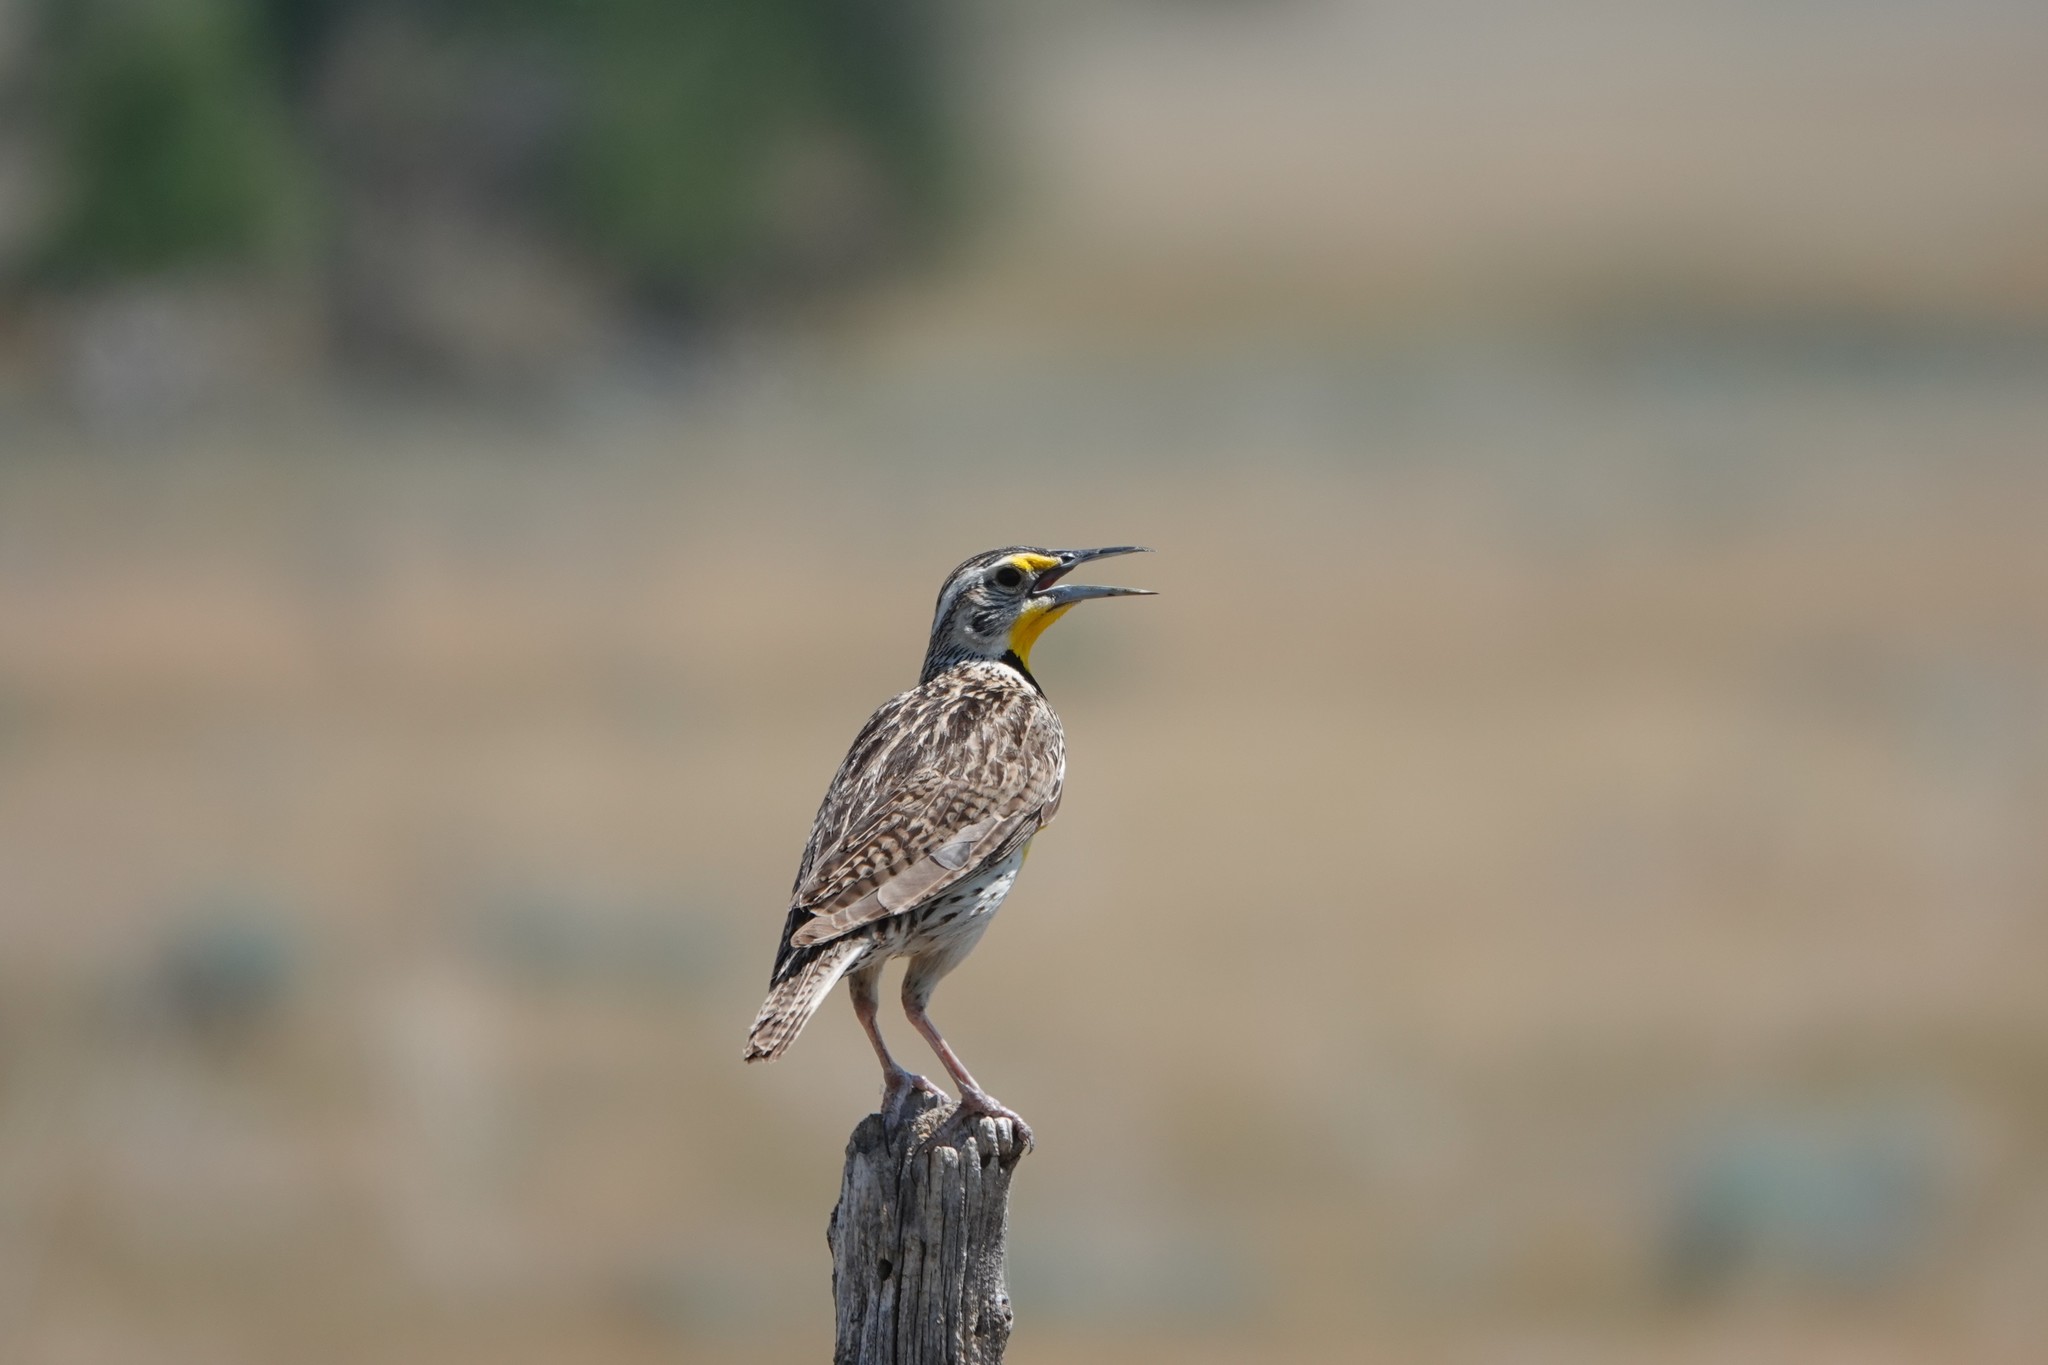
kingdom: Animalia
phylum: Chordata
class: Aves
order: Passeriformes
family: Icteridae
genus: Sturnella
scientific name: Sturnella neglecta
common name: Western meadowlark
